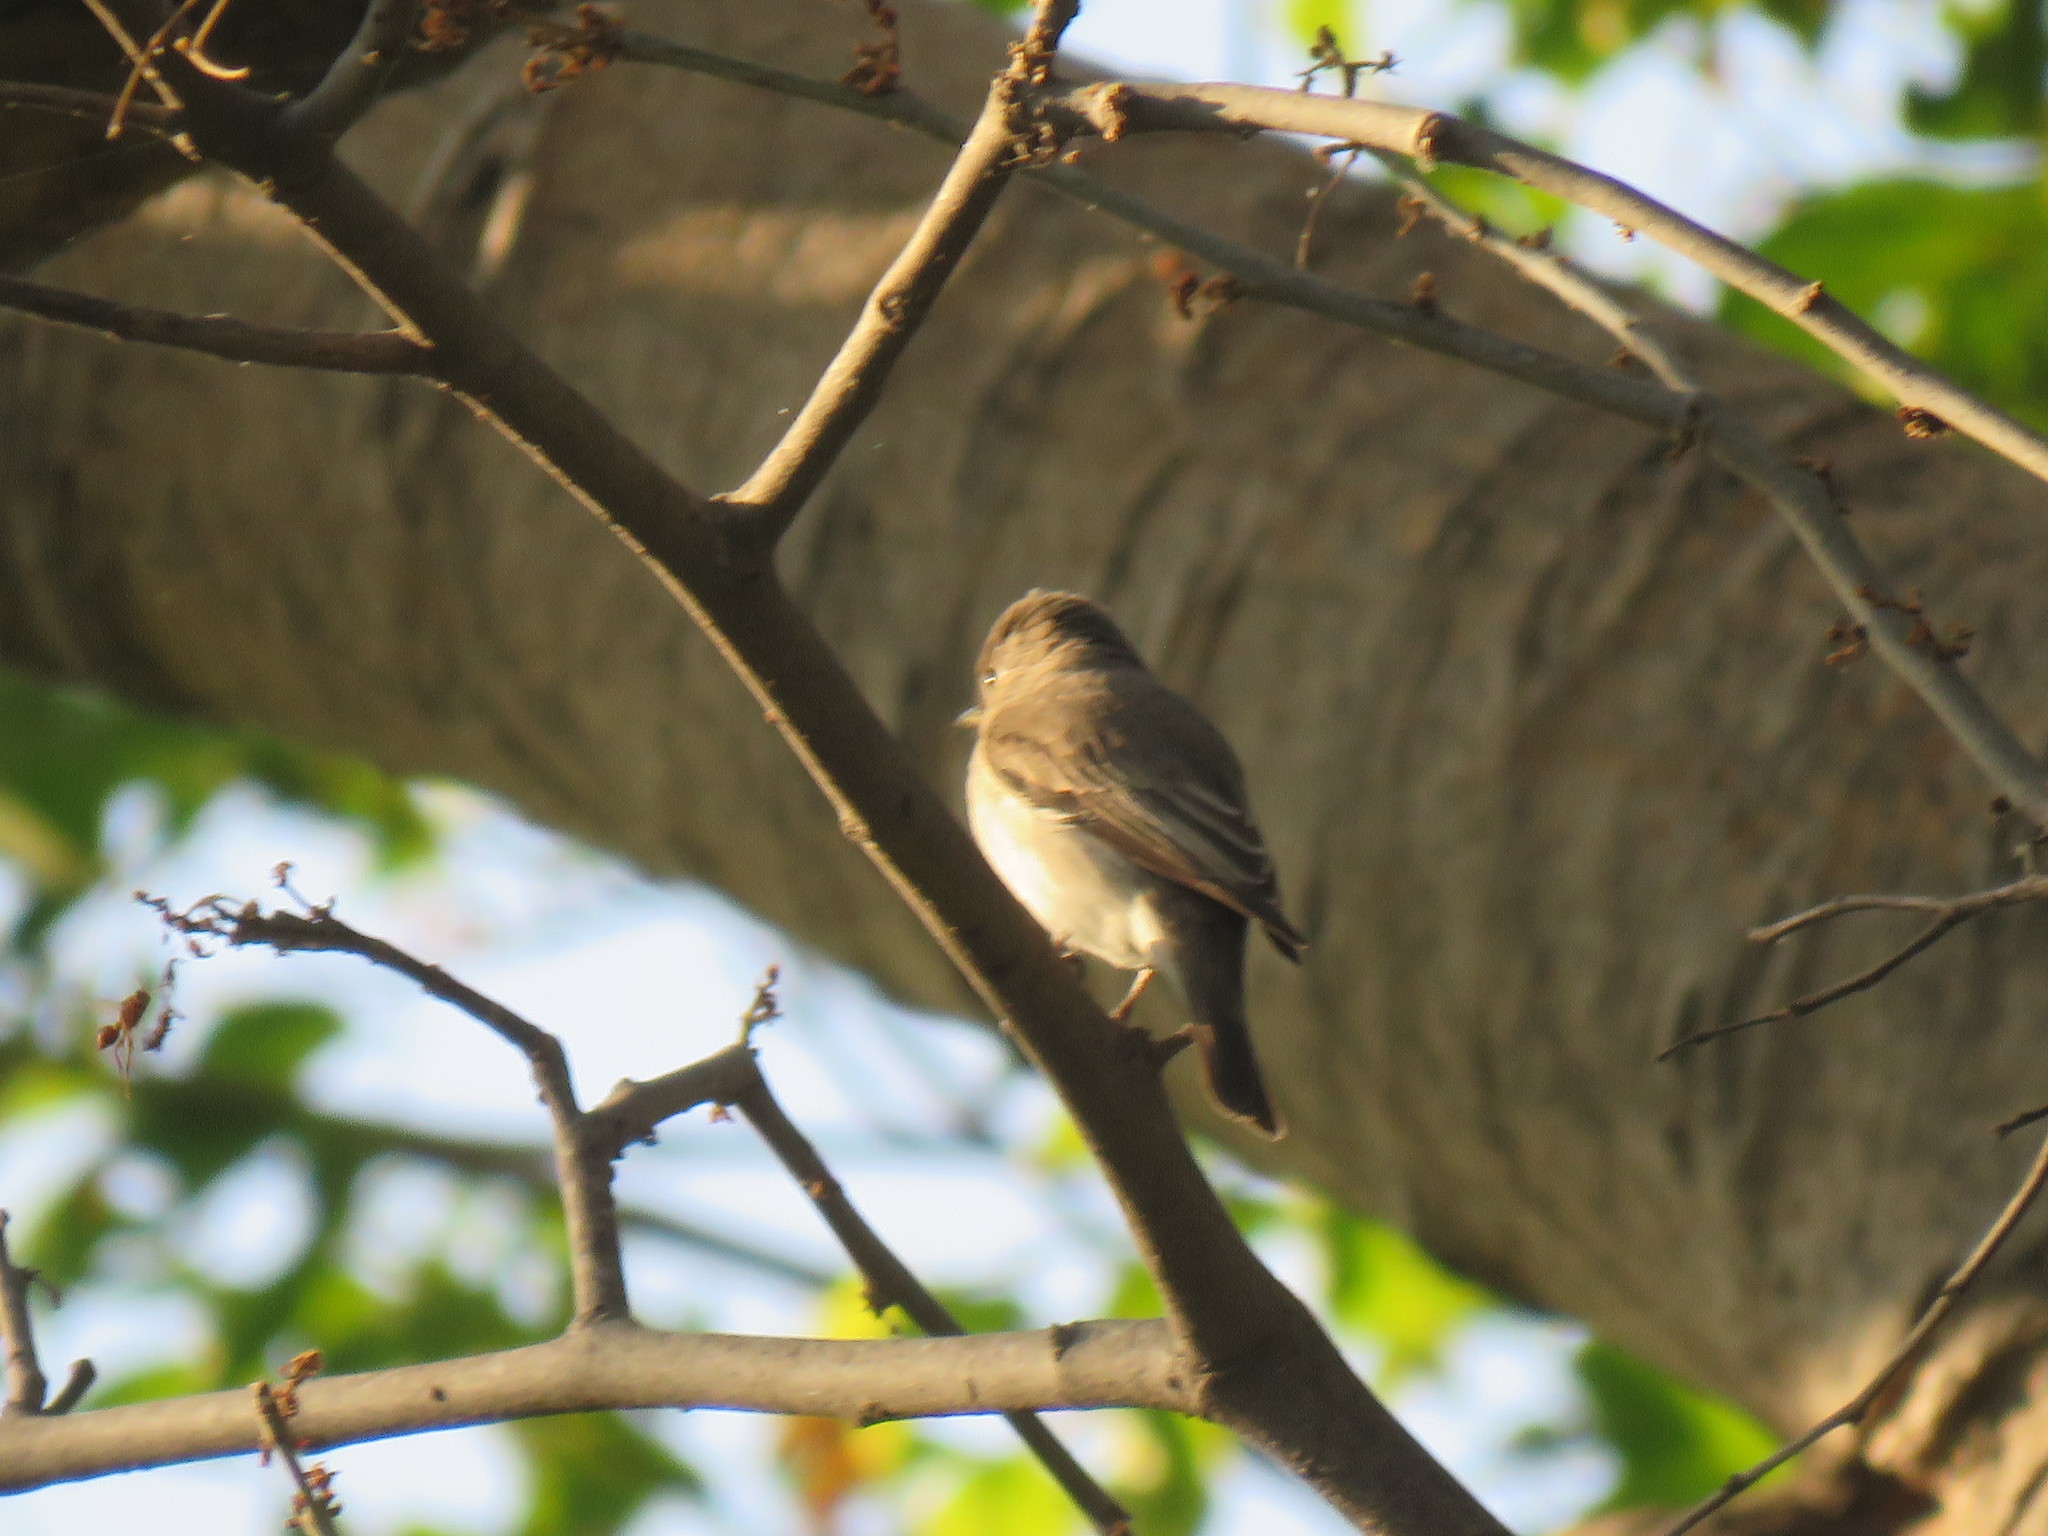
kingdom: Animalia
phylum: Chordata
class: Aves
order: Passeriformes
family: Muscicapidae
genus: Muscicapa
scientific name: Muscicapa latirostris
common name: Asian brown flycatcher
